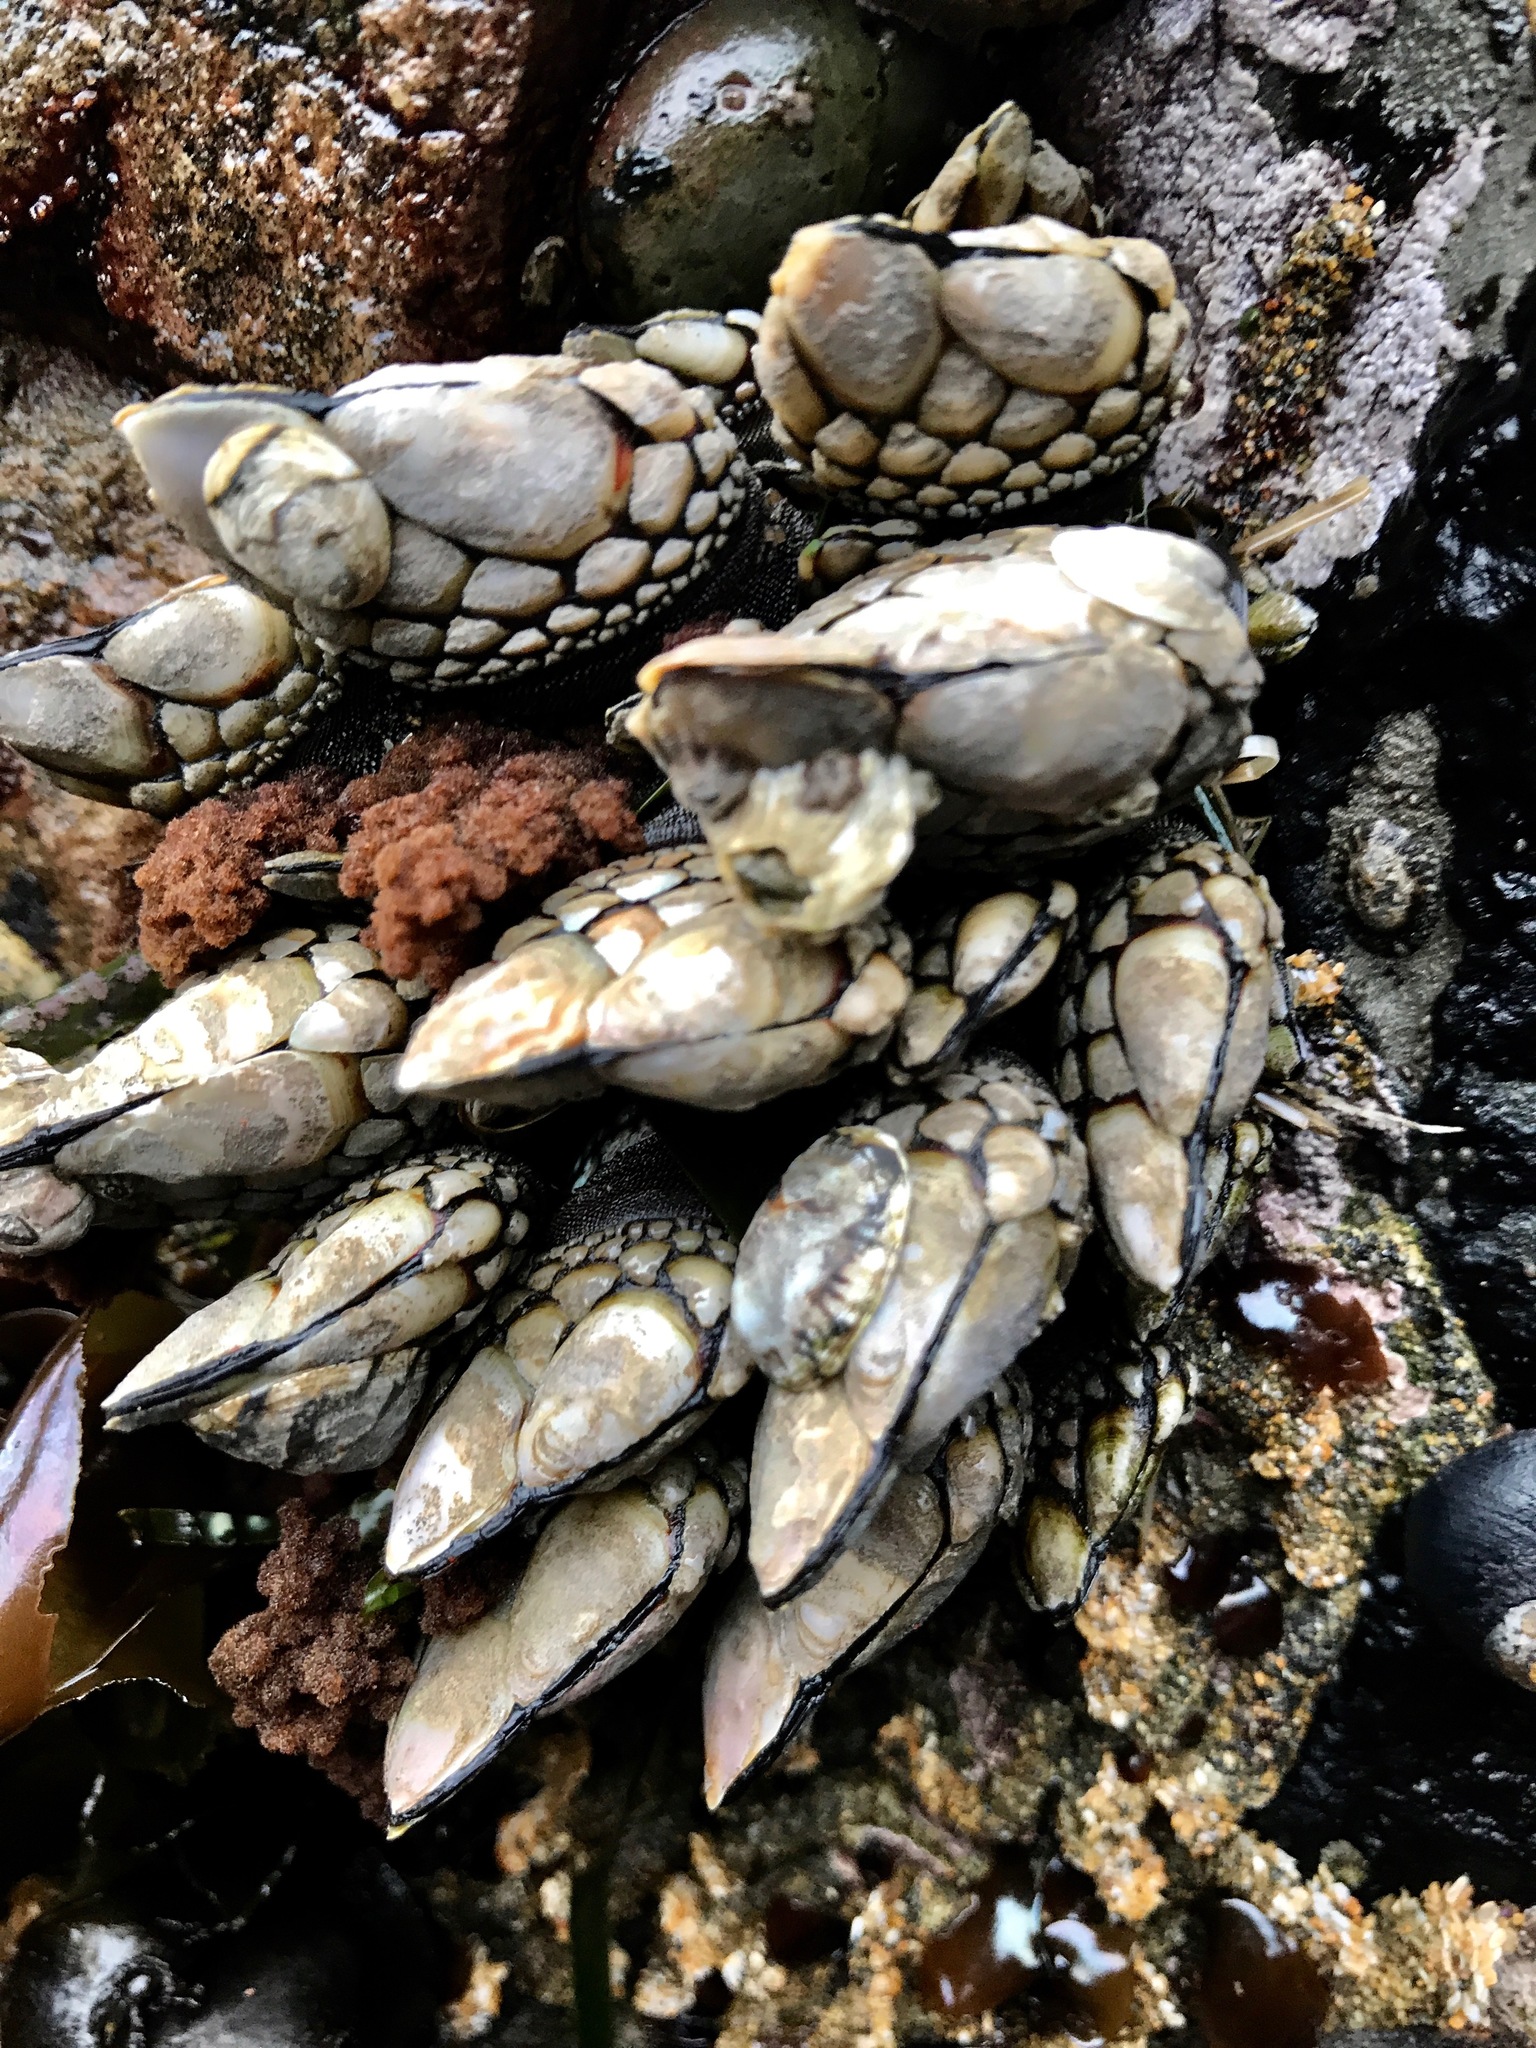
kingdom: Animalia
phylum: Arthropoda
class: Maxillopoda
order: Pedunculata
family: Pollicipedidae
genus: Pollicipes
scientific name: Pollicipes polymerus
